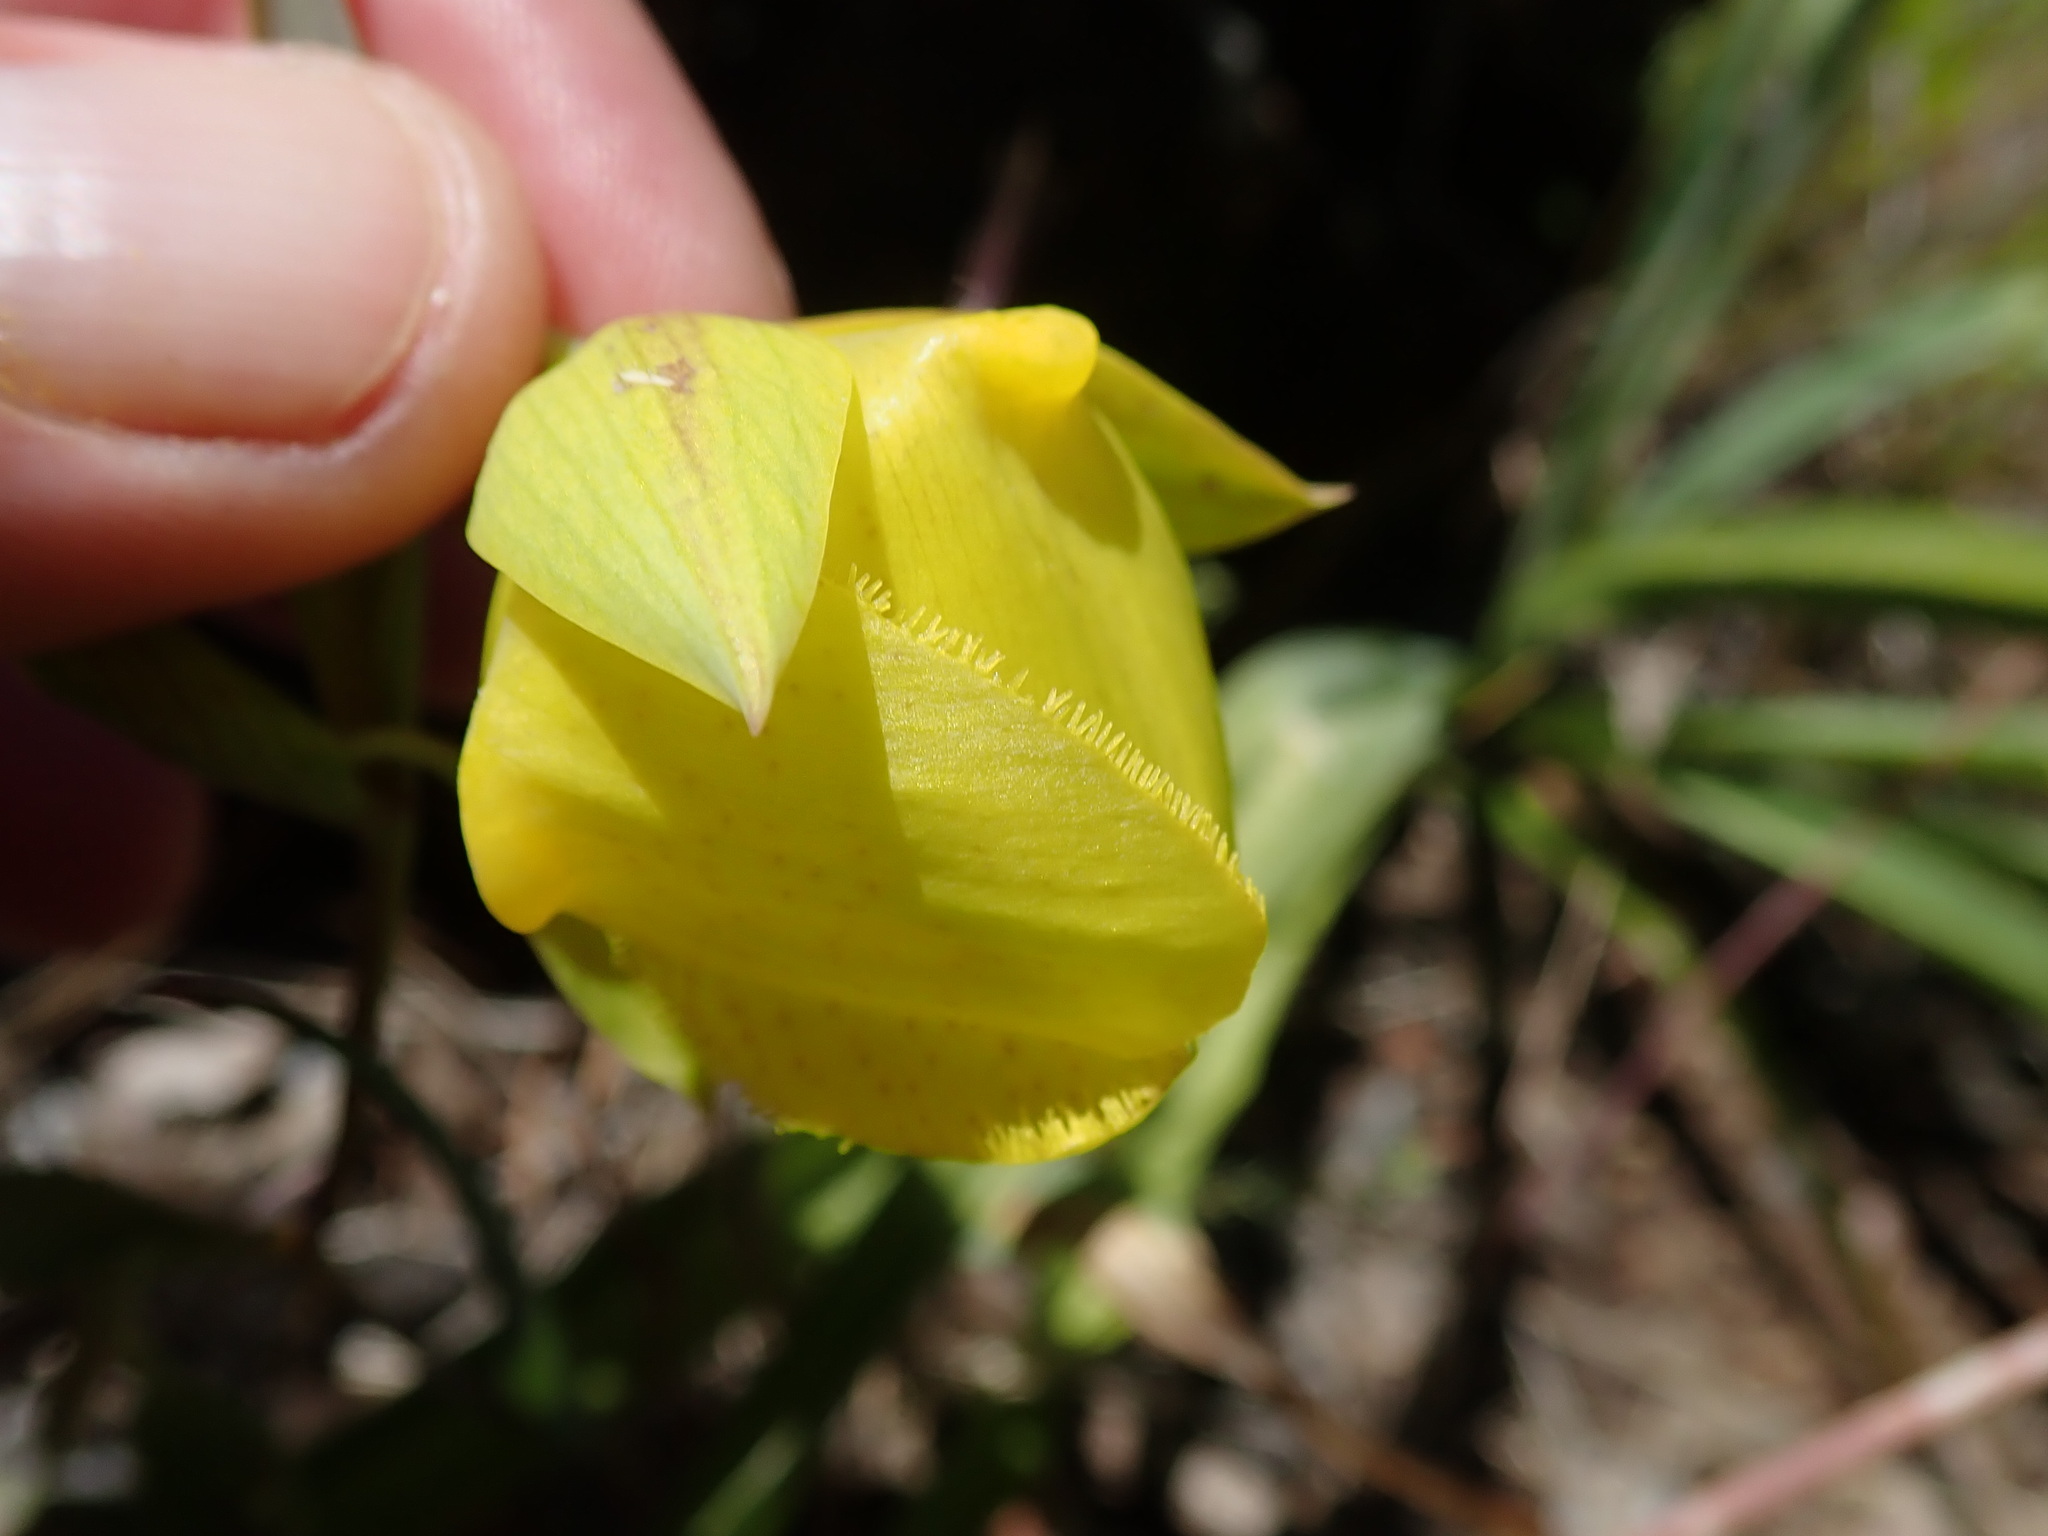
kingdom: Plantae
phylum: Tracheophyta
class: Liliopsida
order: Liliales
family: Liliaceae
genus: Calochortus
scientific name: Calochortus pulchellus
